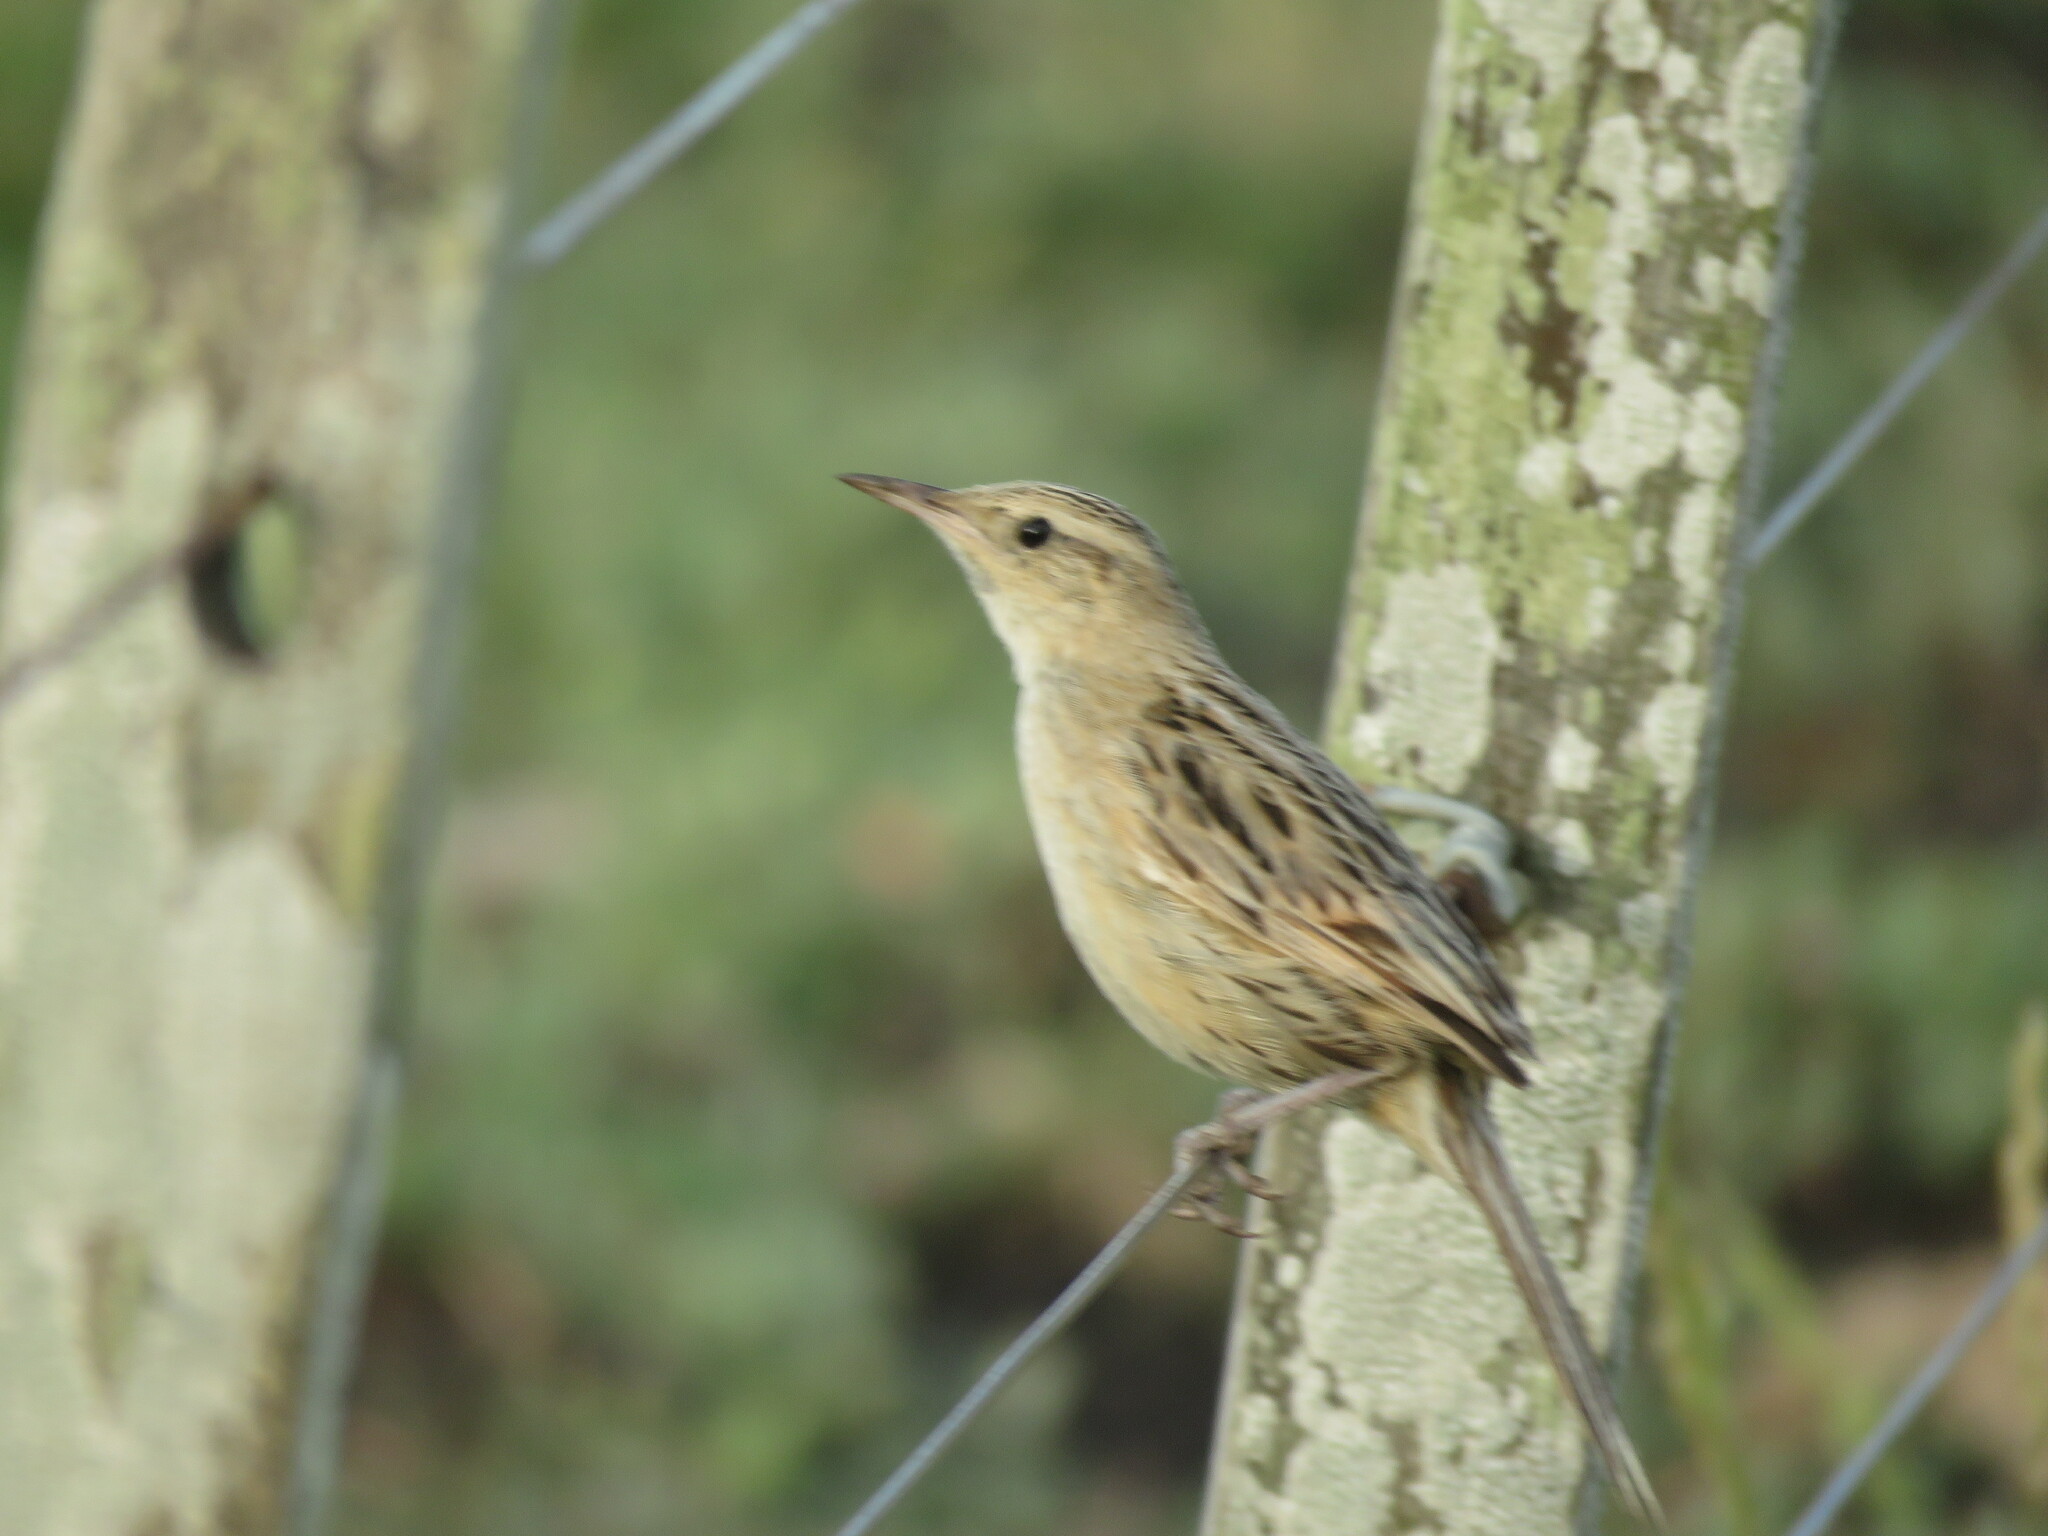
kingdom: Animalia
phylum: Chordata
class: Aves
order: Passeriformes
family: Furnariidae
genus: Asthenes
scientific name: Asthenes hudsoni
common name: Hudson's canastero
